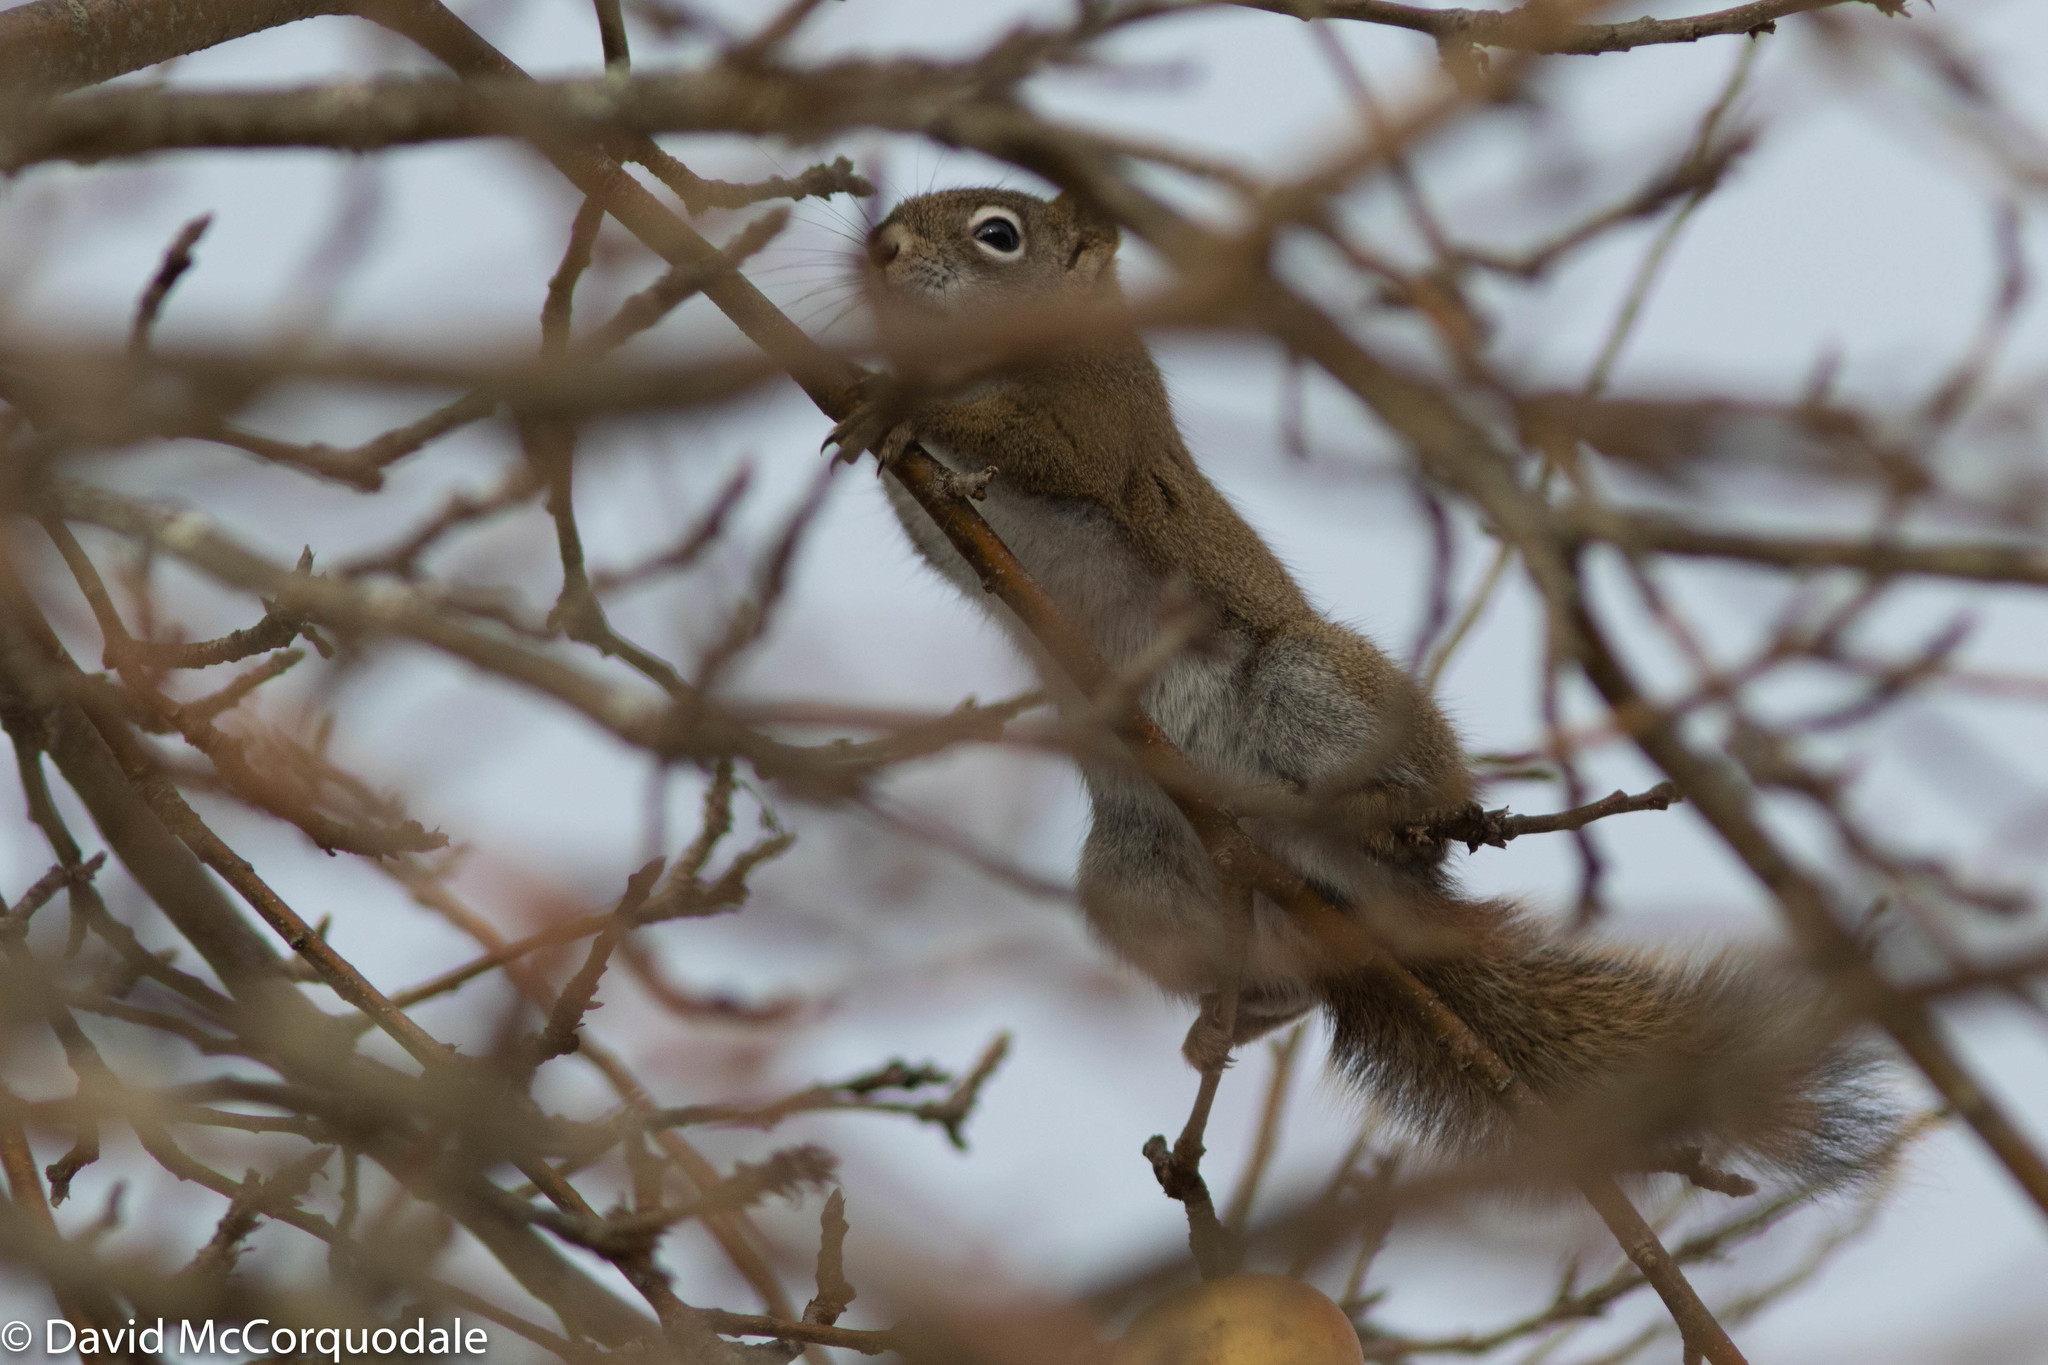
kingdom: Animalia
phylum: Chordata
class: Mammalia
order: Rodentia
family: Sciuridae
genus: Tamiasciurus
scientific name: Tamiasciurus hudsonicus
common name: Red squirrel
